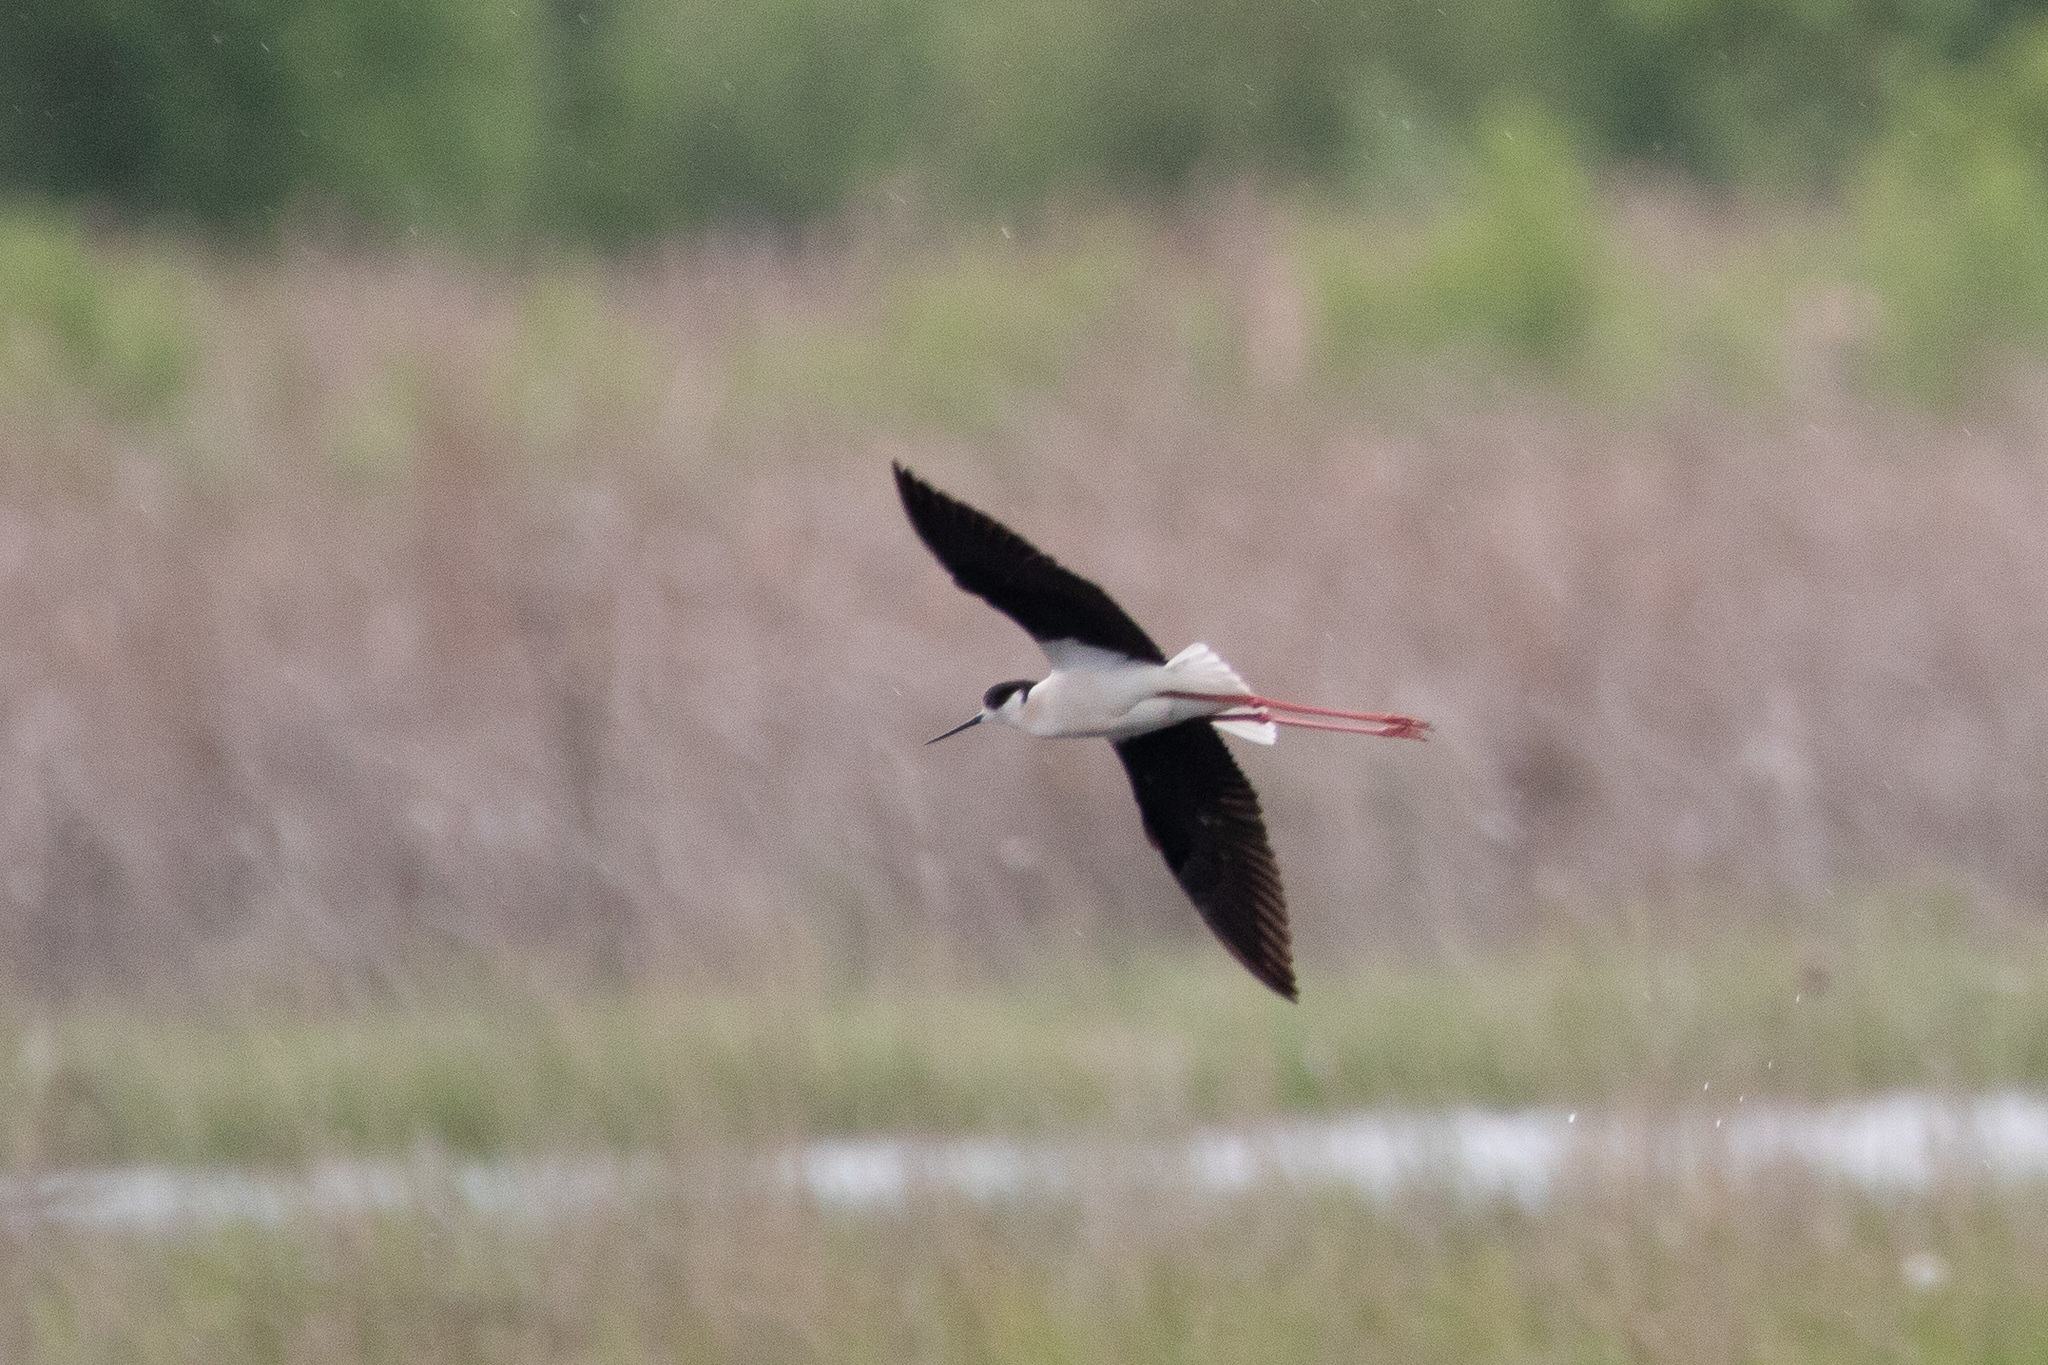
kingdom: Animalia
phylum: Chordata
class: Aves
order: Charadriiformes
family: Recurvirostridae
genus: Himantopus
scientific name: Himantopus himantopus
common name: Black-winged stilt
